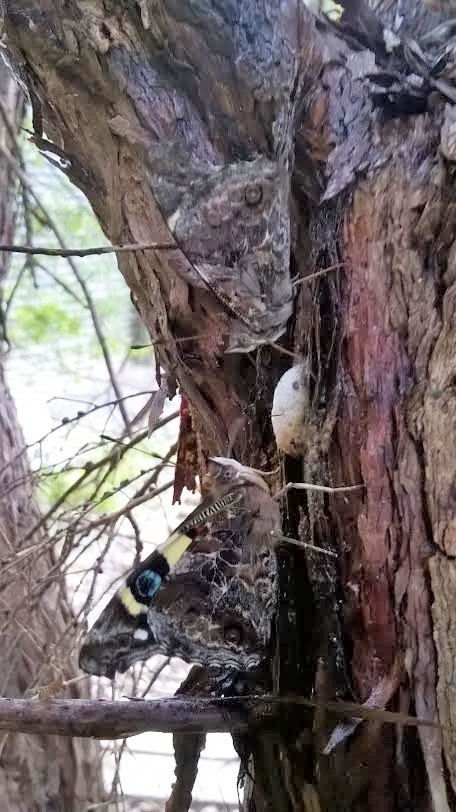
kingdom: Animalia
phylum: Arthropoda
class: Insecta
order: Lepidoptera
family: Nymphalidae
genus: Vanessa
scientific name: Vanessa itea
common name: Yellow admiral
